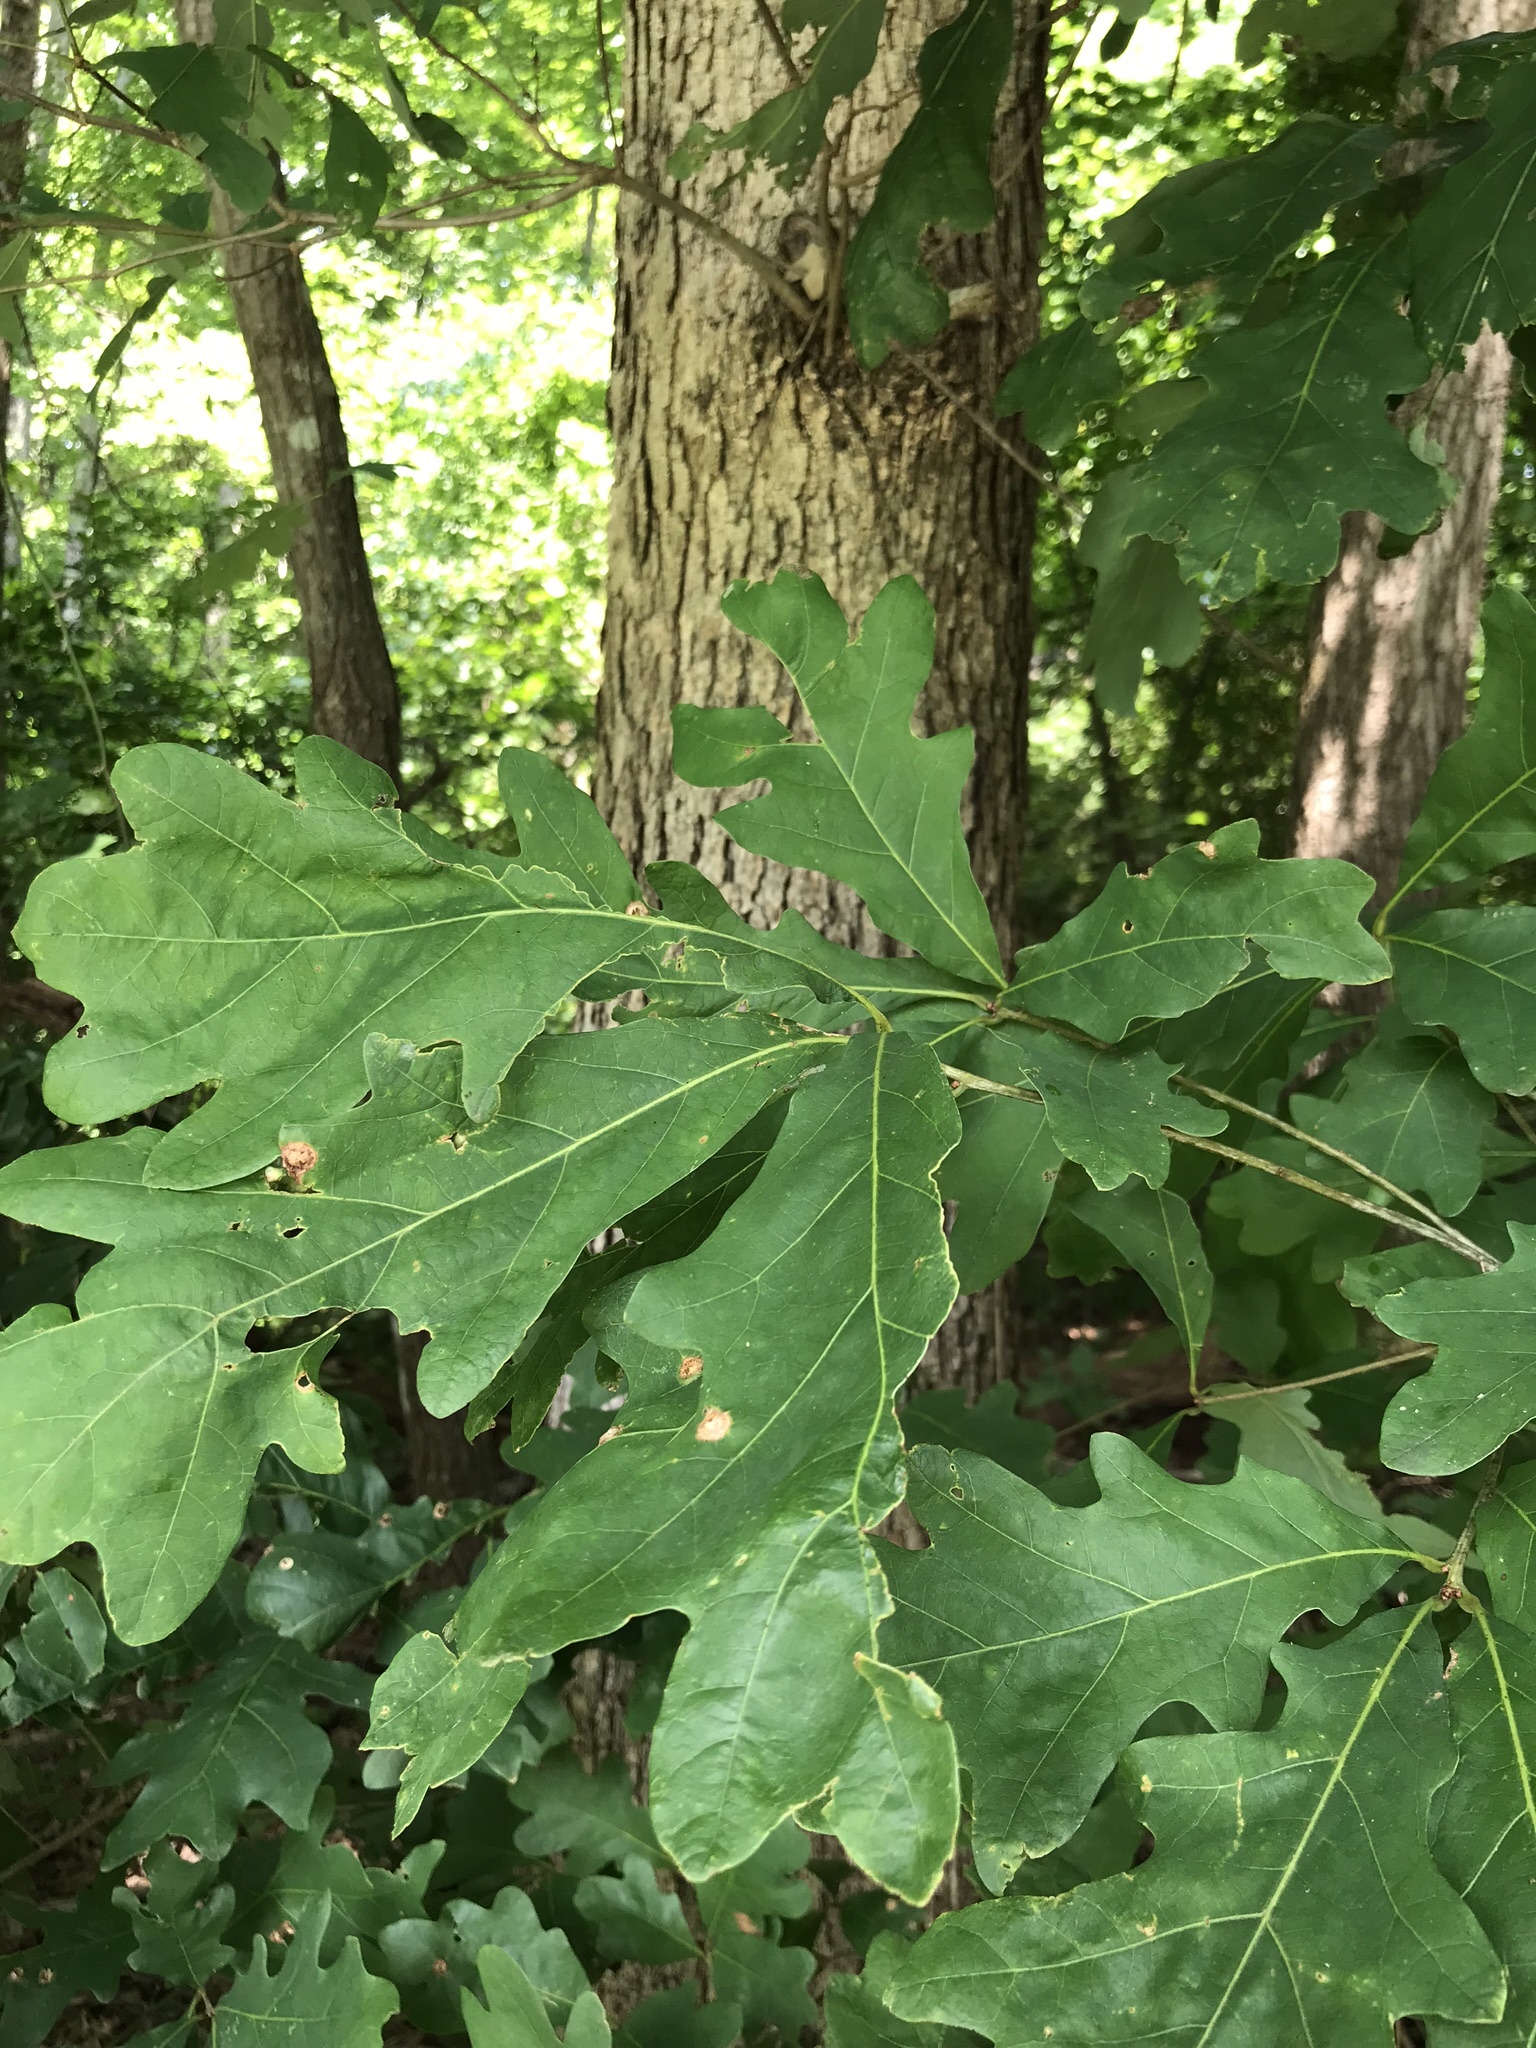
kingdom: Plantae
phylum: Tracheophyta
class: Magnoliopsida
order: Fagales
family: Fagaceae
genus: Quercus
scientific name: Quercus alba
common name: White oak
